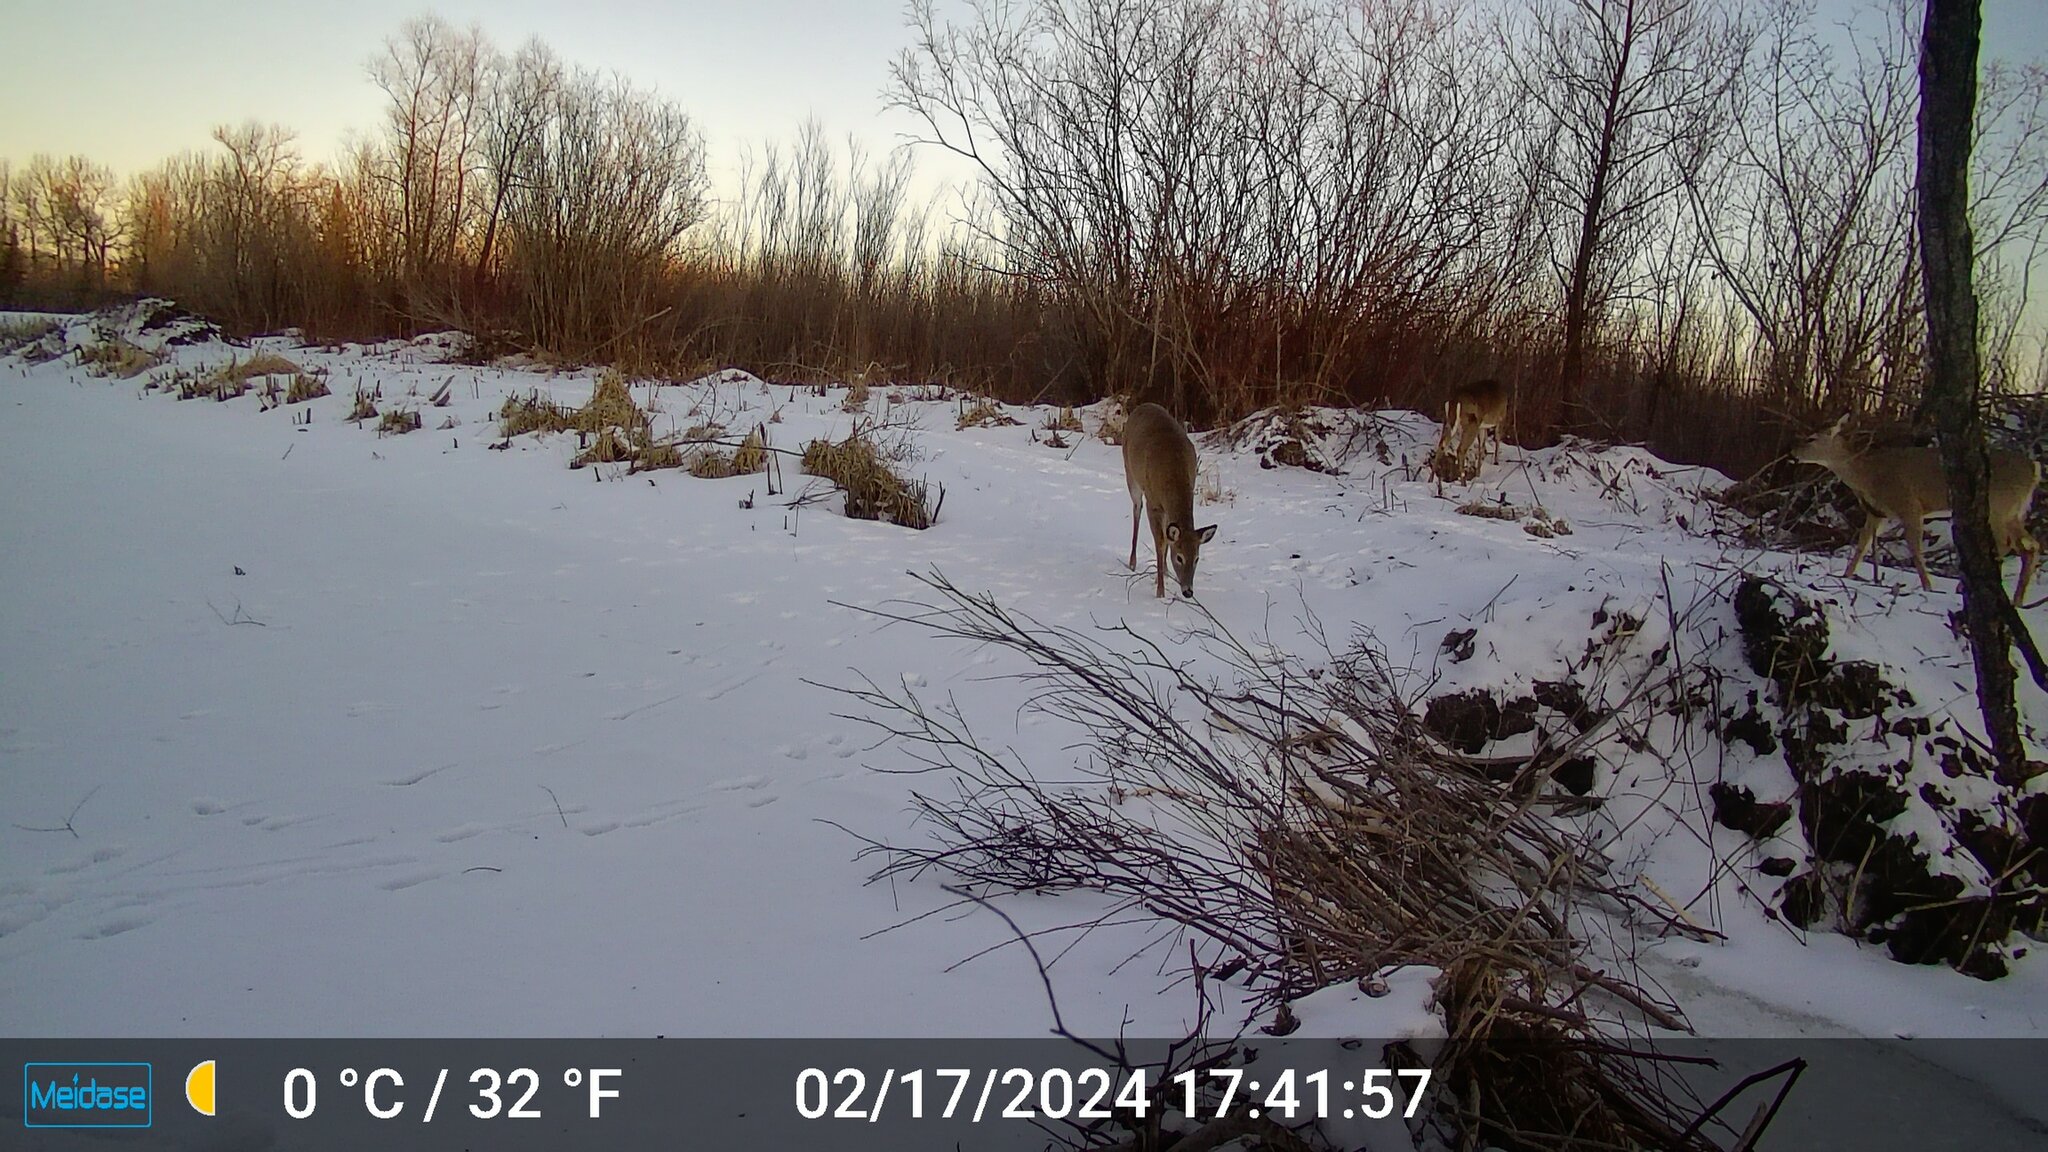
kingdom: Animalia
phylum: Chordata
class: Mammalia
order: Artiodactyla
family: Cervidae
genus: Odocoileus
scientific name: Odocoileus virginianus
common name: White-tailed deer
